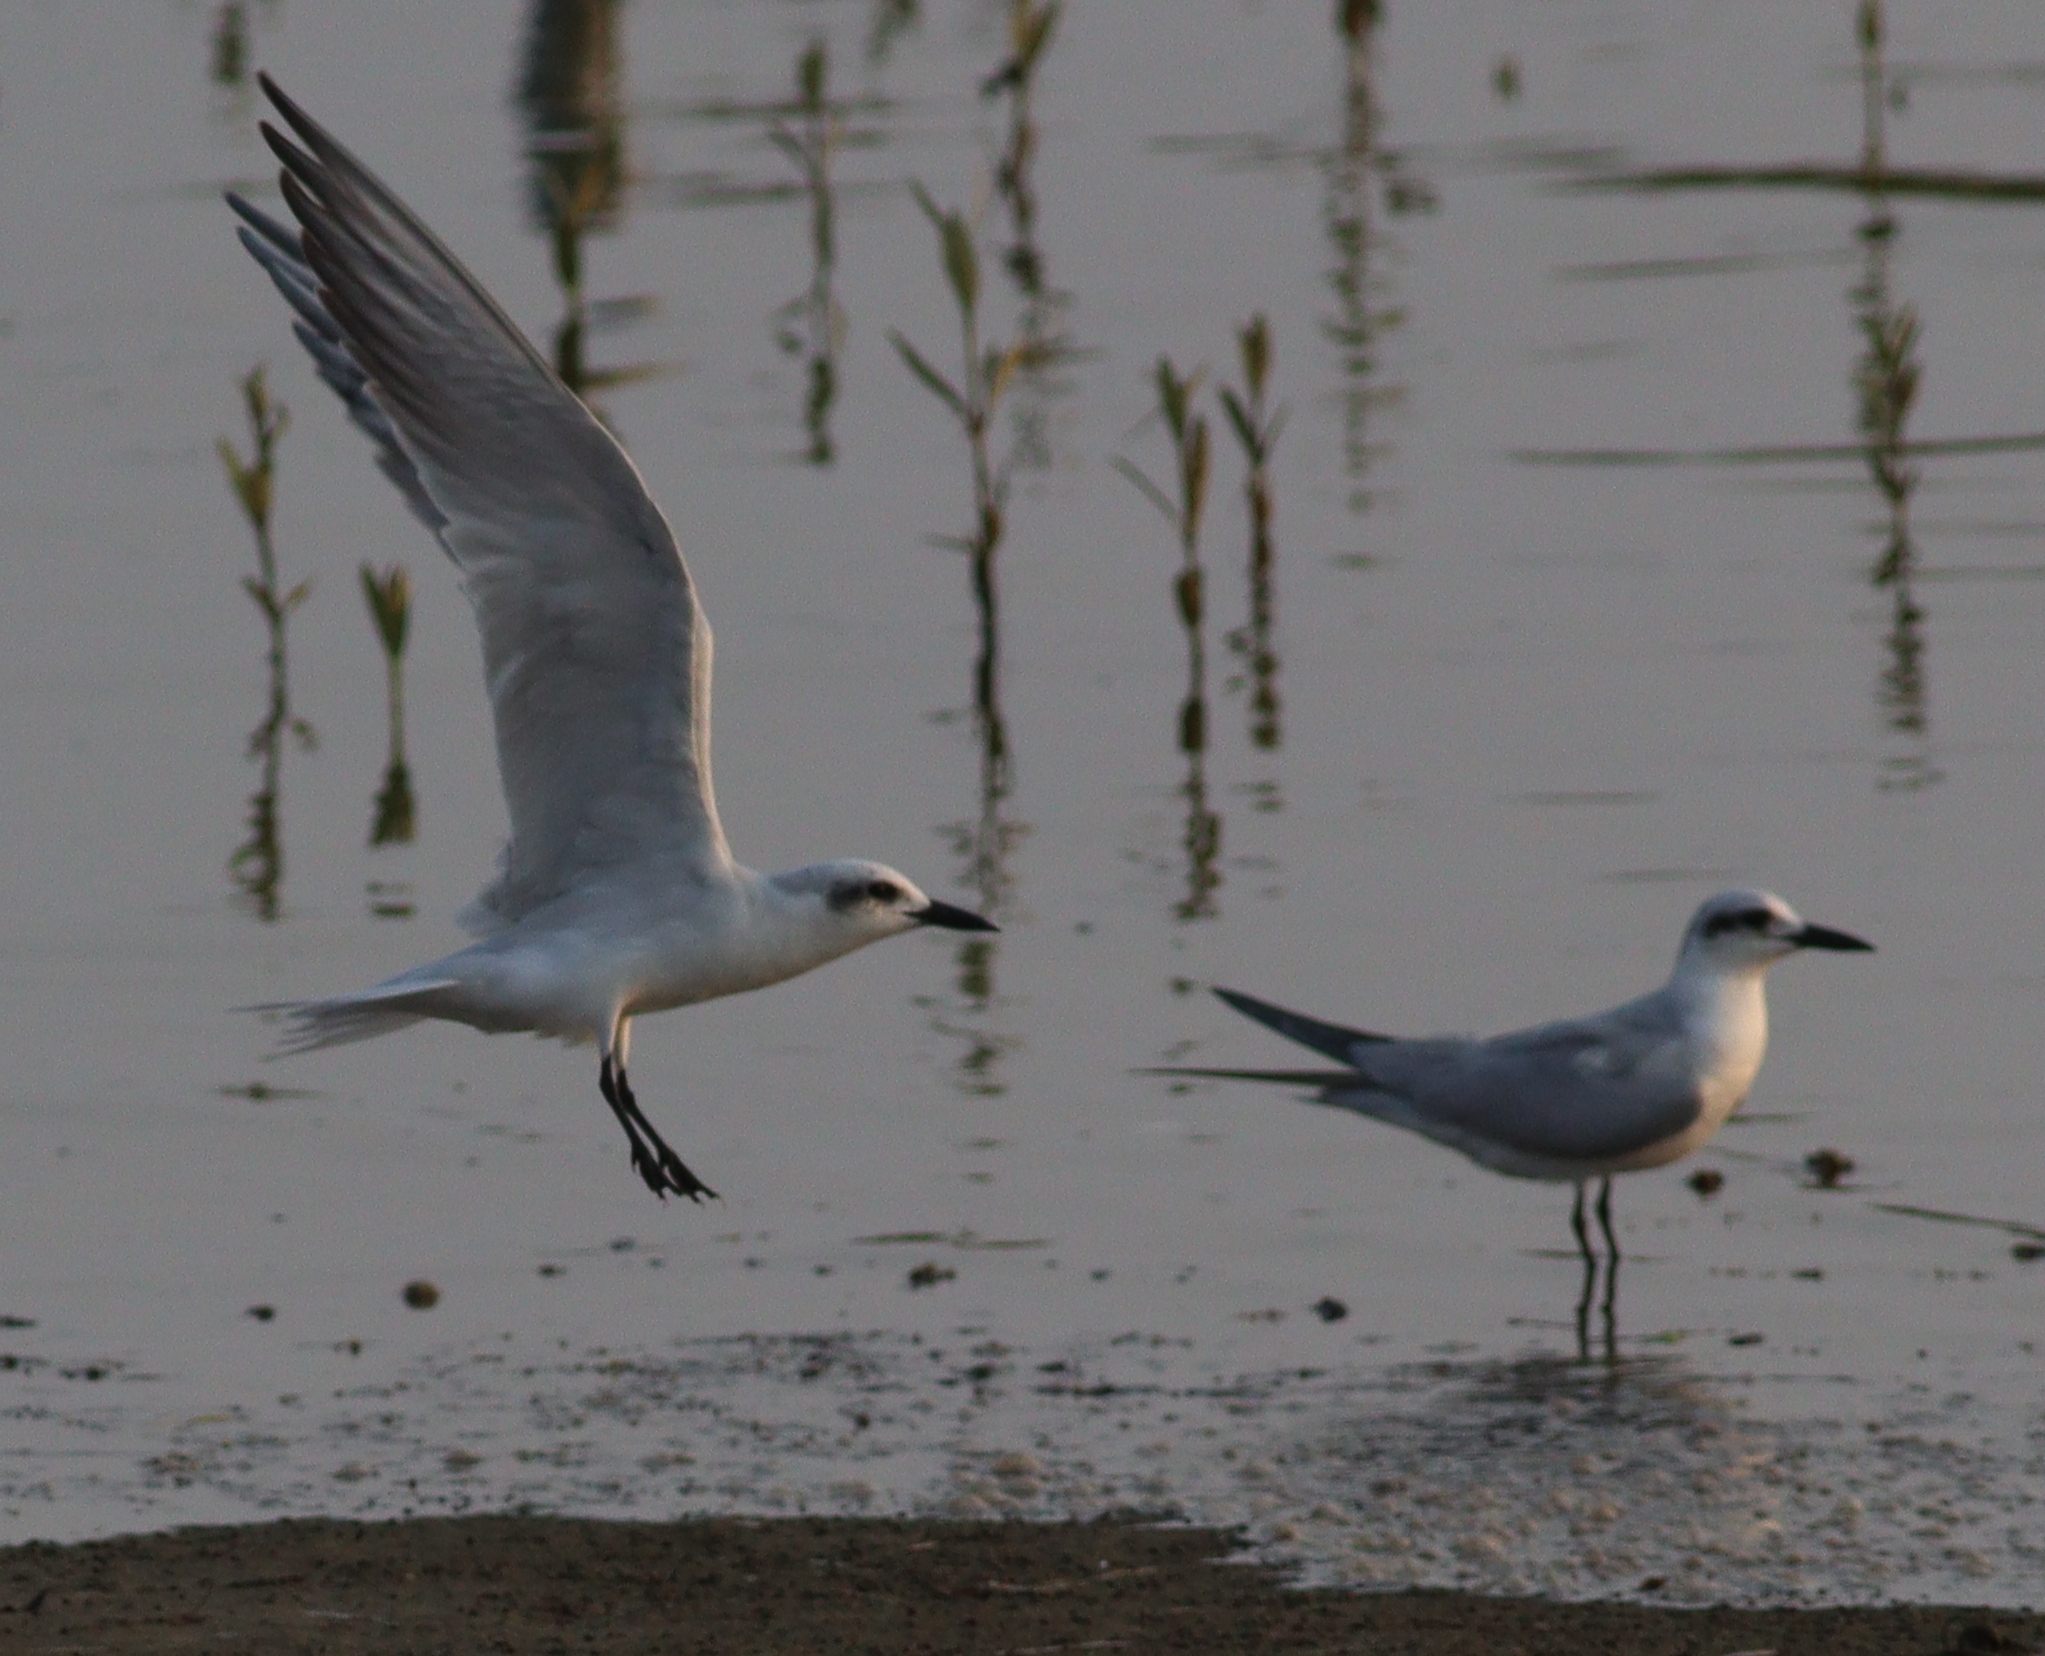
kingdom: Animalia
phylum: Chordata
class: Aves
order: Charadriiformes
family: Laridae
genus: Gelochelidon
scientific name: Gelochelidon nilotica
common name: Gull-billed tern
